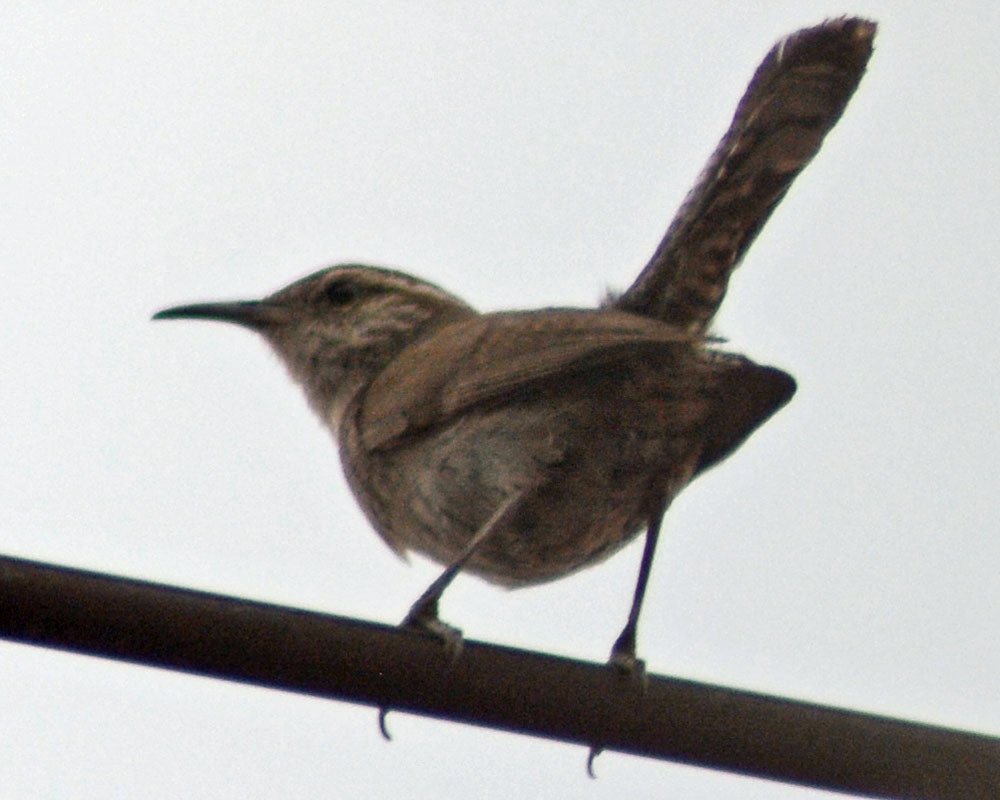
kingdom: Animalia
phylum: Chordata
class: Aves
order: Passeriformes
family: Troglodytidae
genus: Thryomanes
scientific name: Thryomanes bewickii
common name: Bewick's wren
